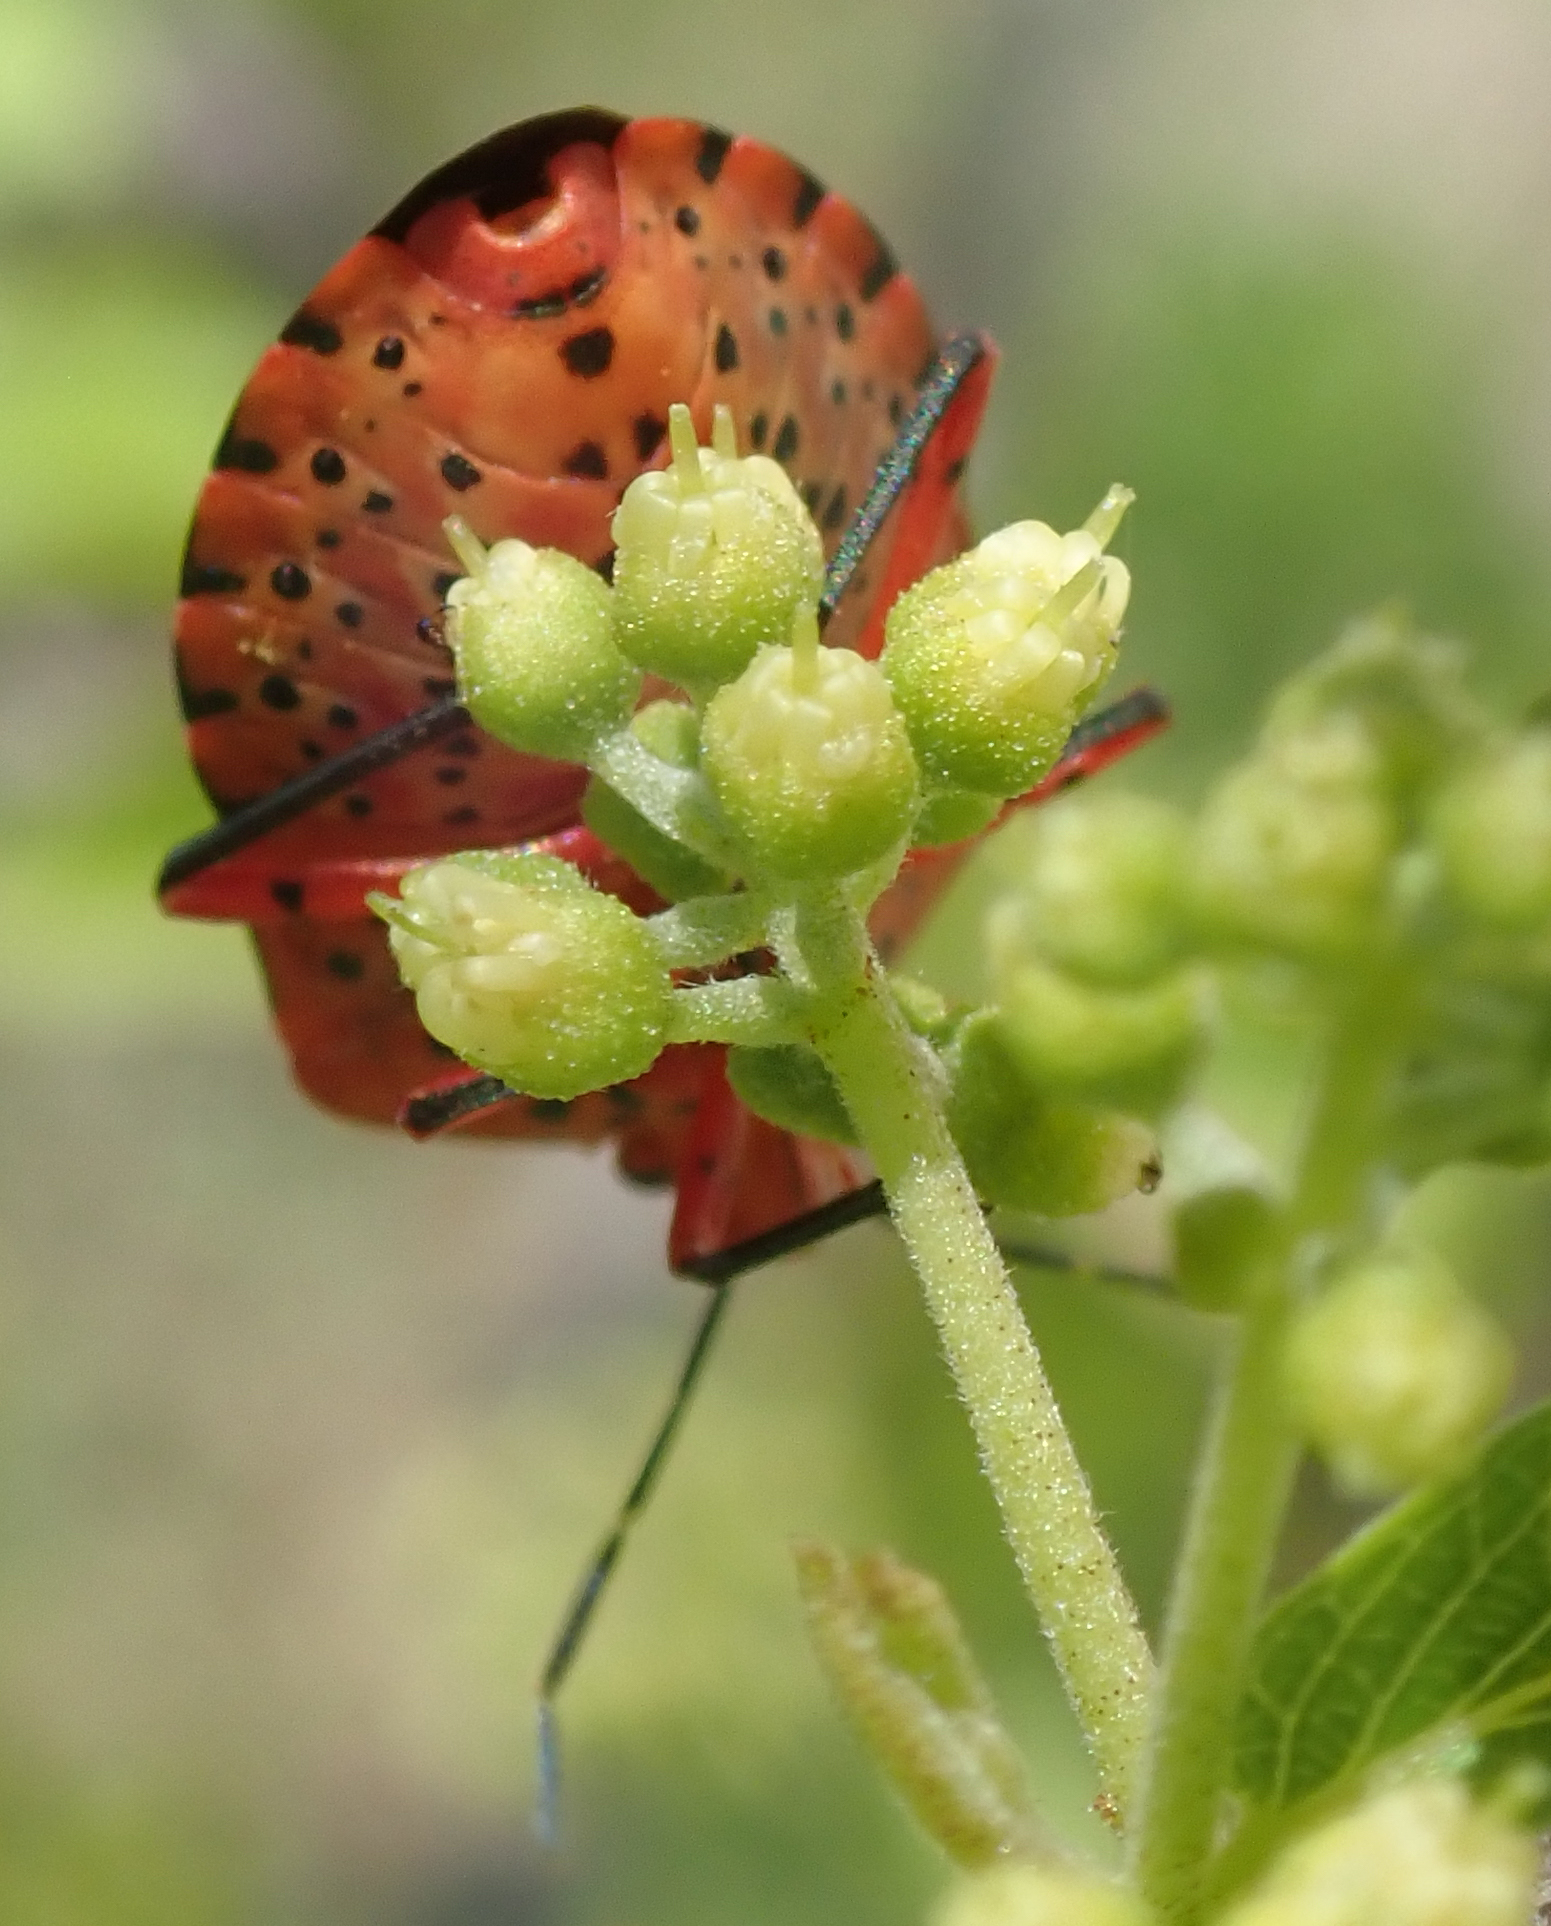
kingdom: Animalia
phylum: Arthropoda
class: Insecta
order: Hemiptera
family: Pentatomidae
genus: Caura
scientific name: Caura rufiventris
